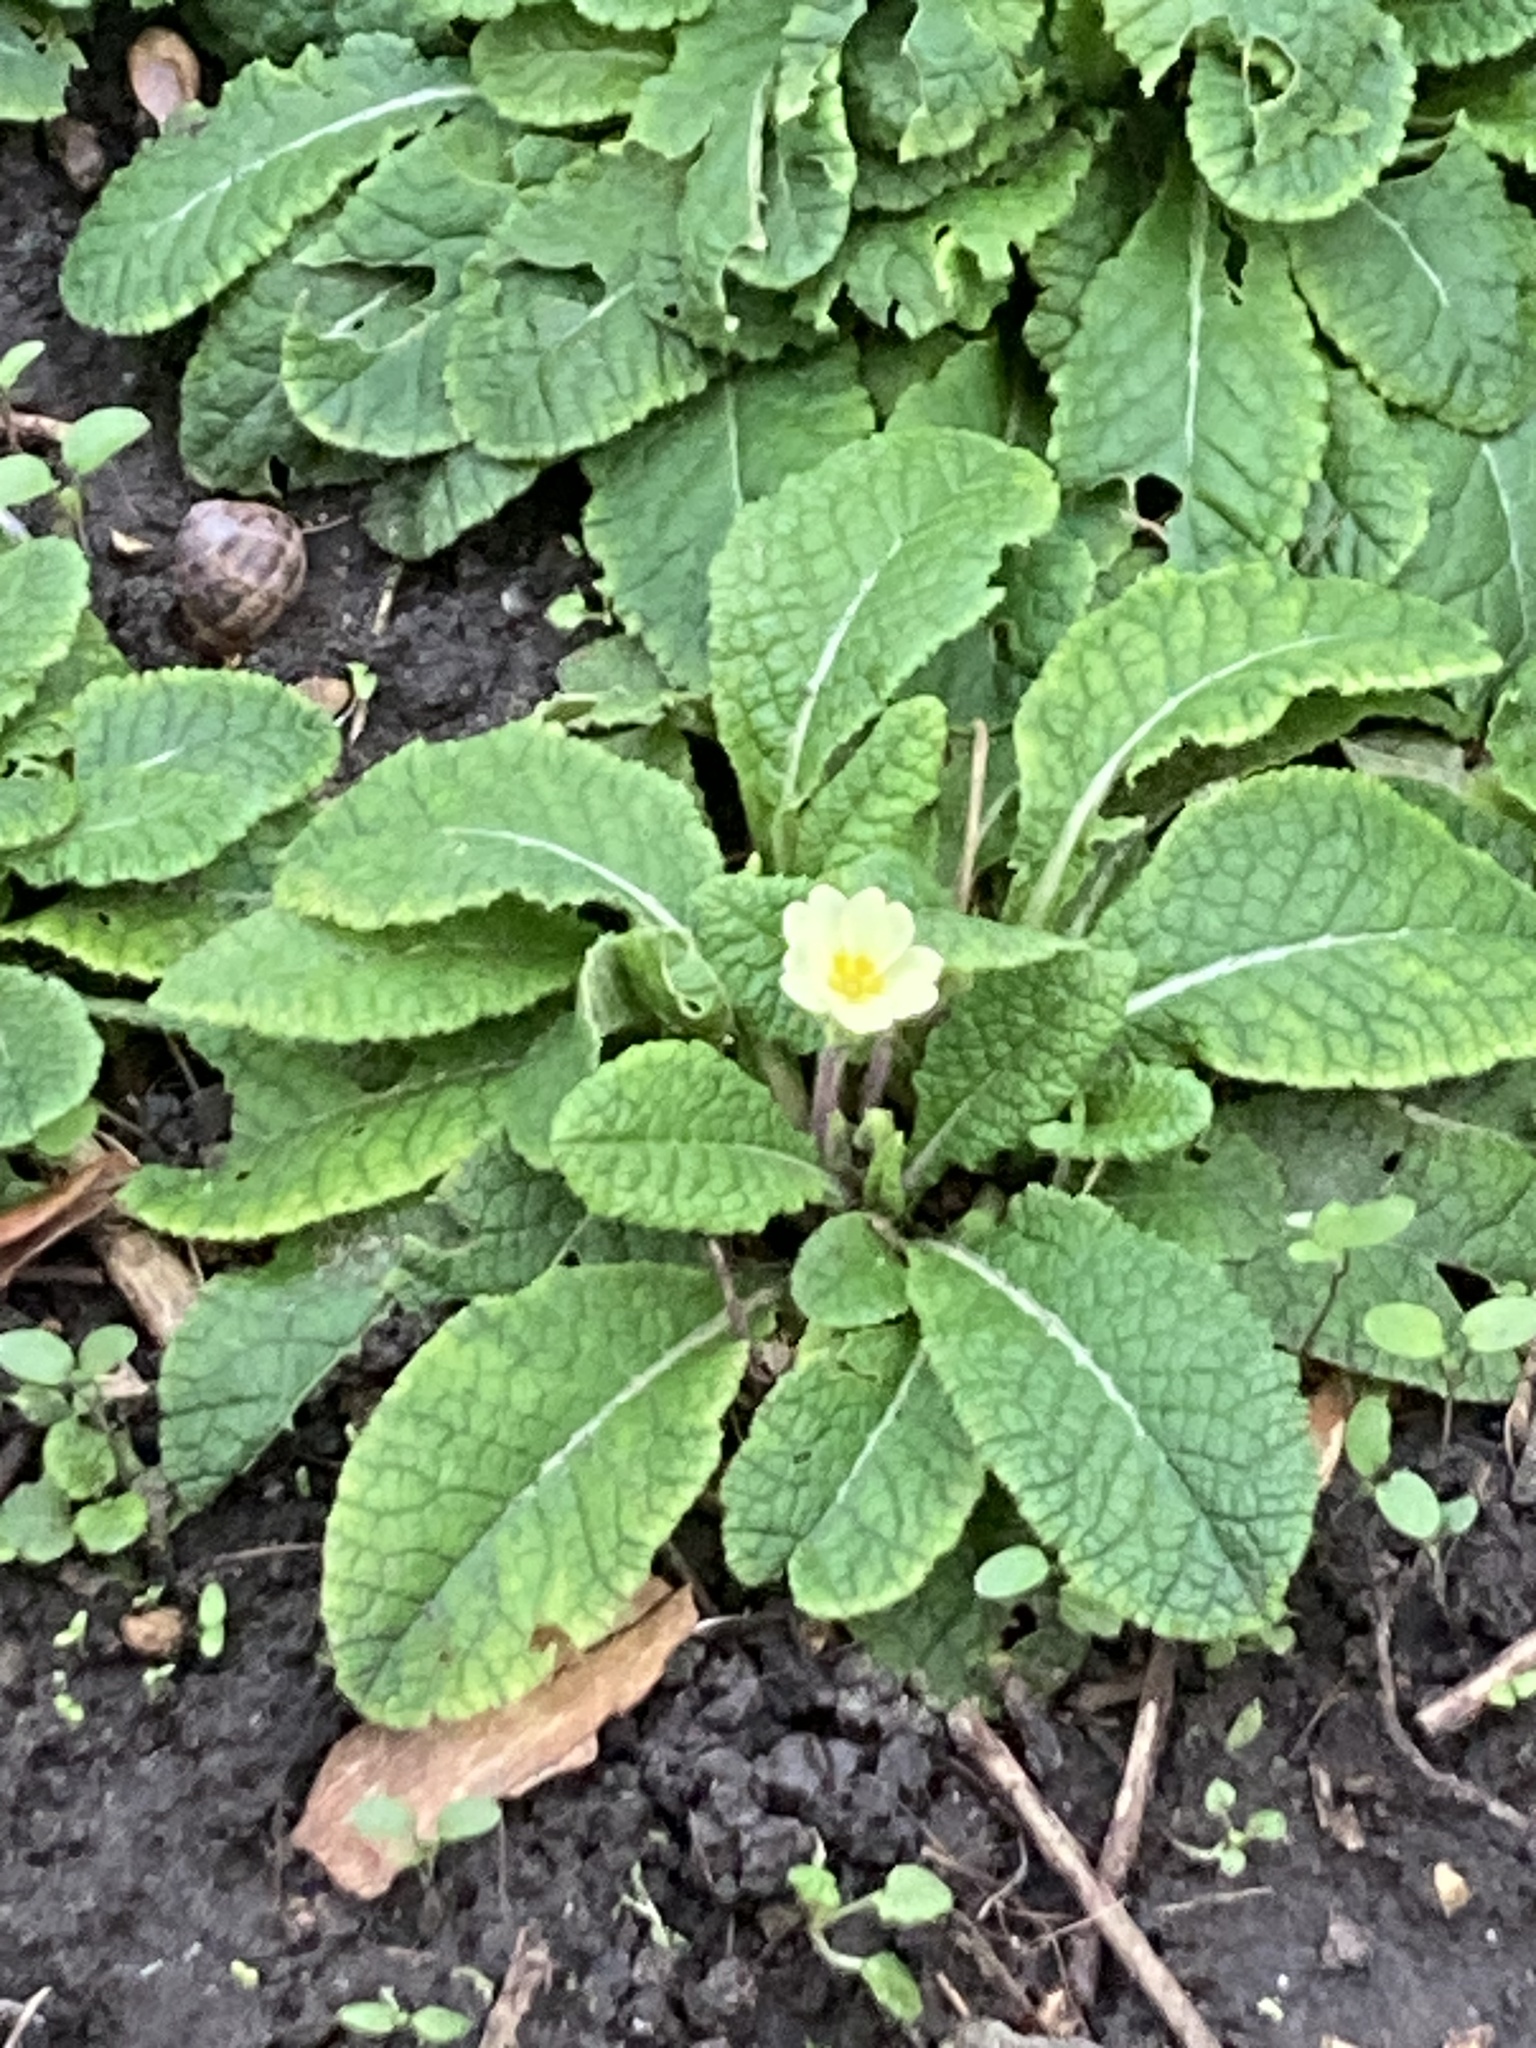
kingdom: Plantae
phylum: Tracheophyta
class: Magnoliopsida
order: Ericales
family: Primulaceae
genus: Primula
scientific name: Primula vulgaris
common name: Primrose
